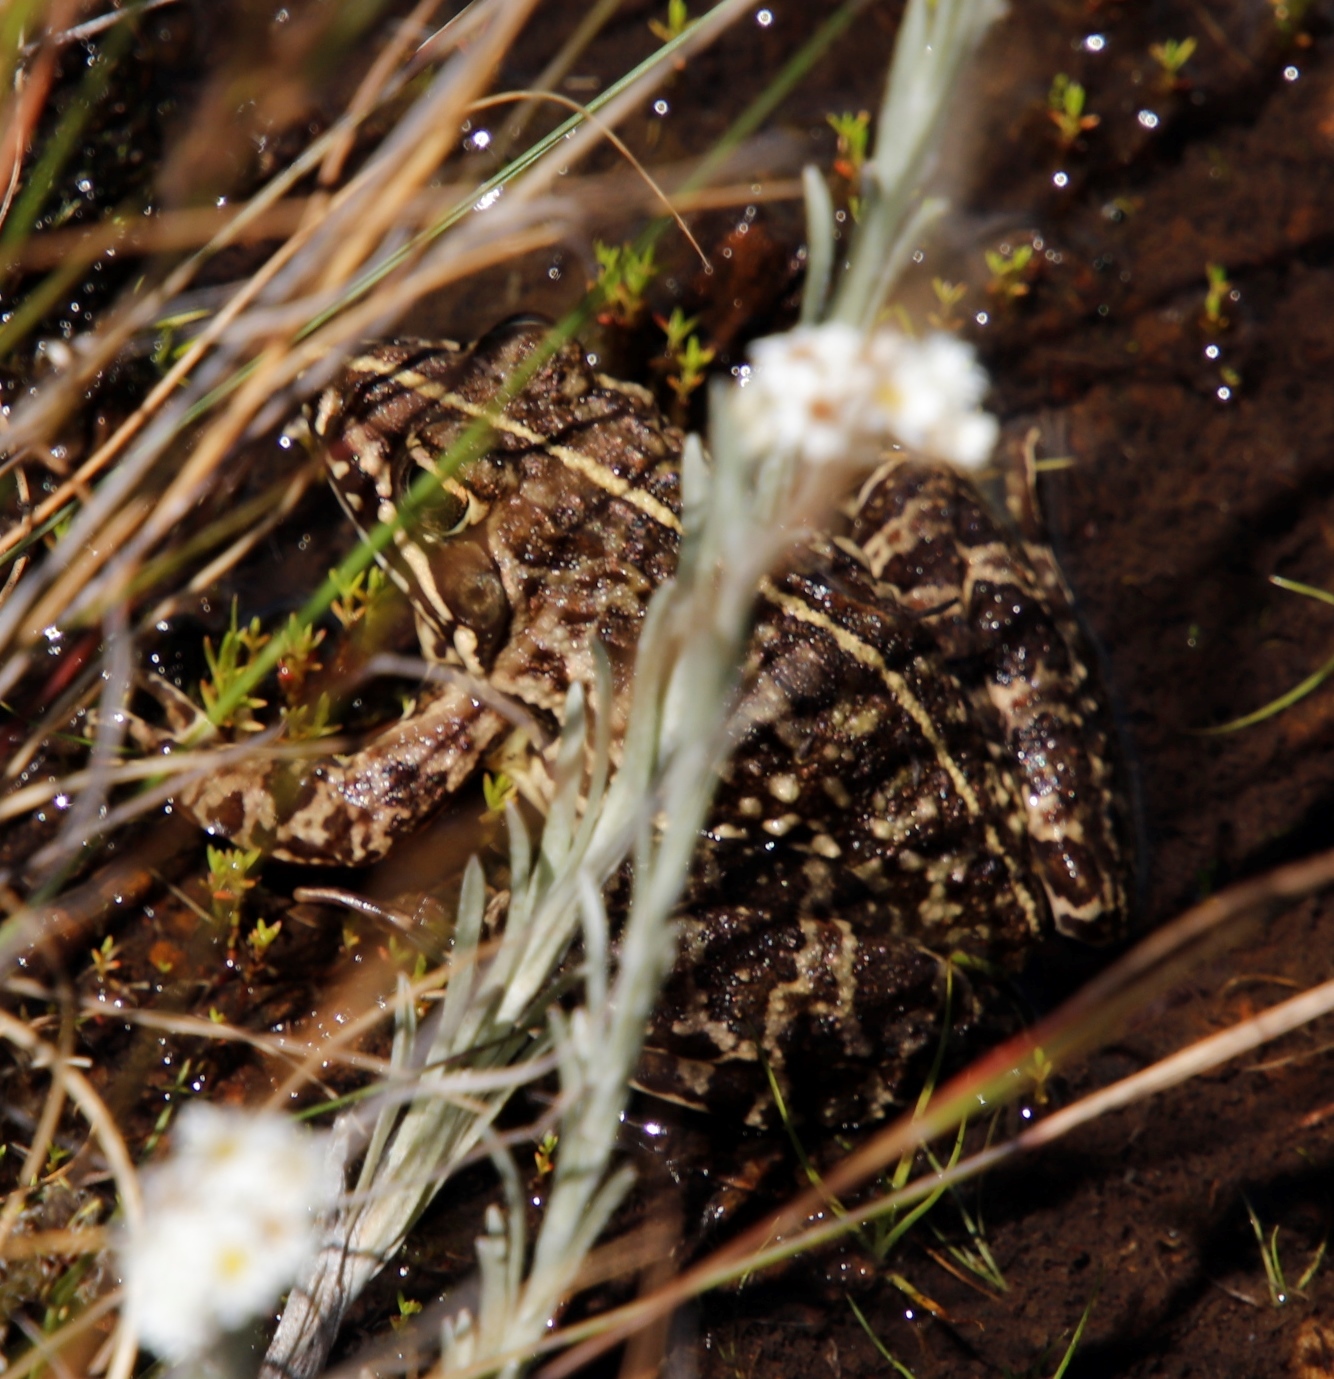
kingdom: Animalia
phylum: Chordata
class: Amphibia
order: Anura
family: Pyxicephalidae
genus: Amietia
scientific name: Amietia delalandii
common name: Delalande's river frog
